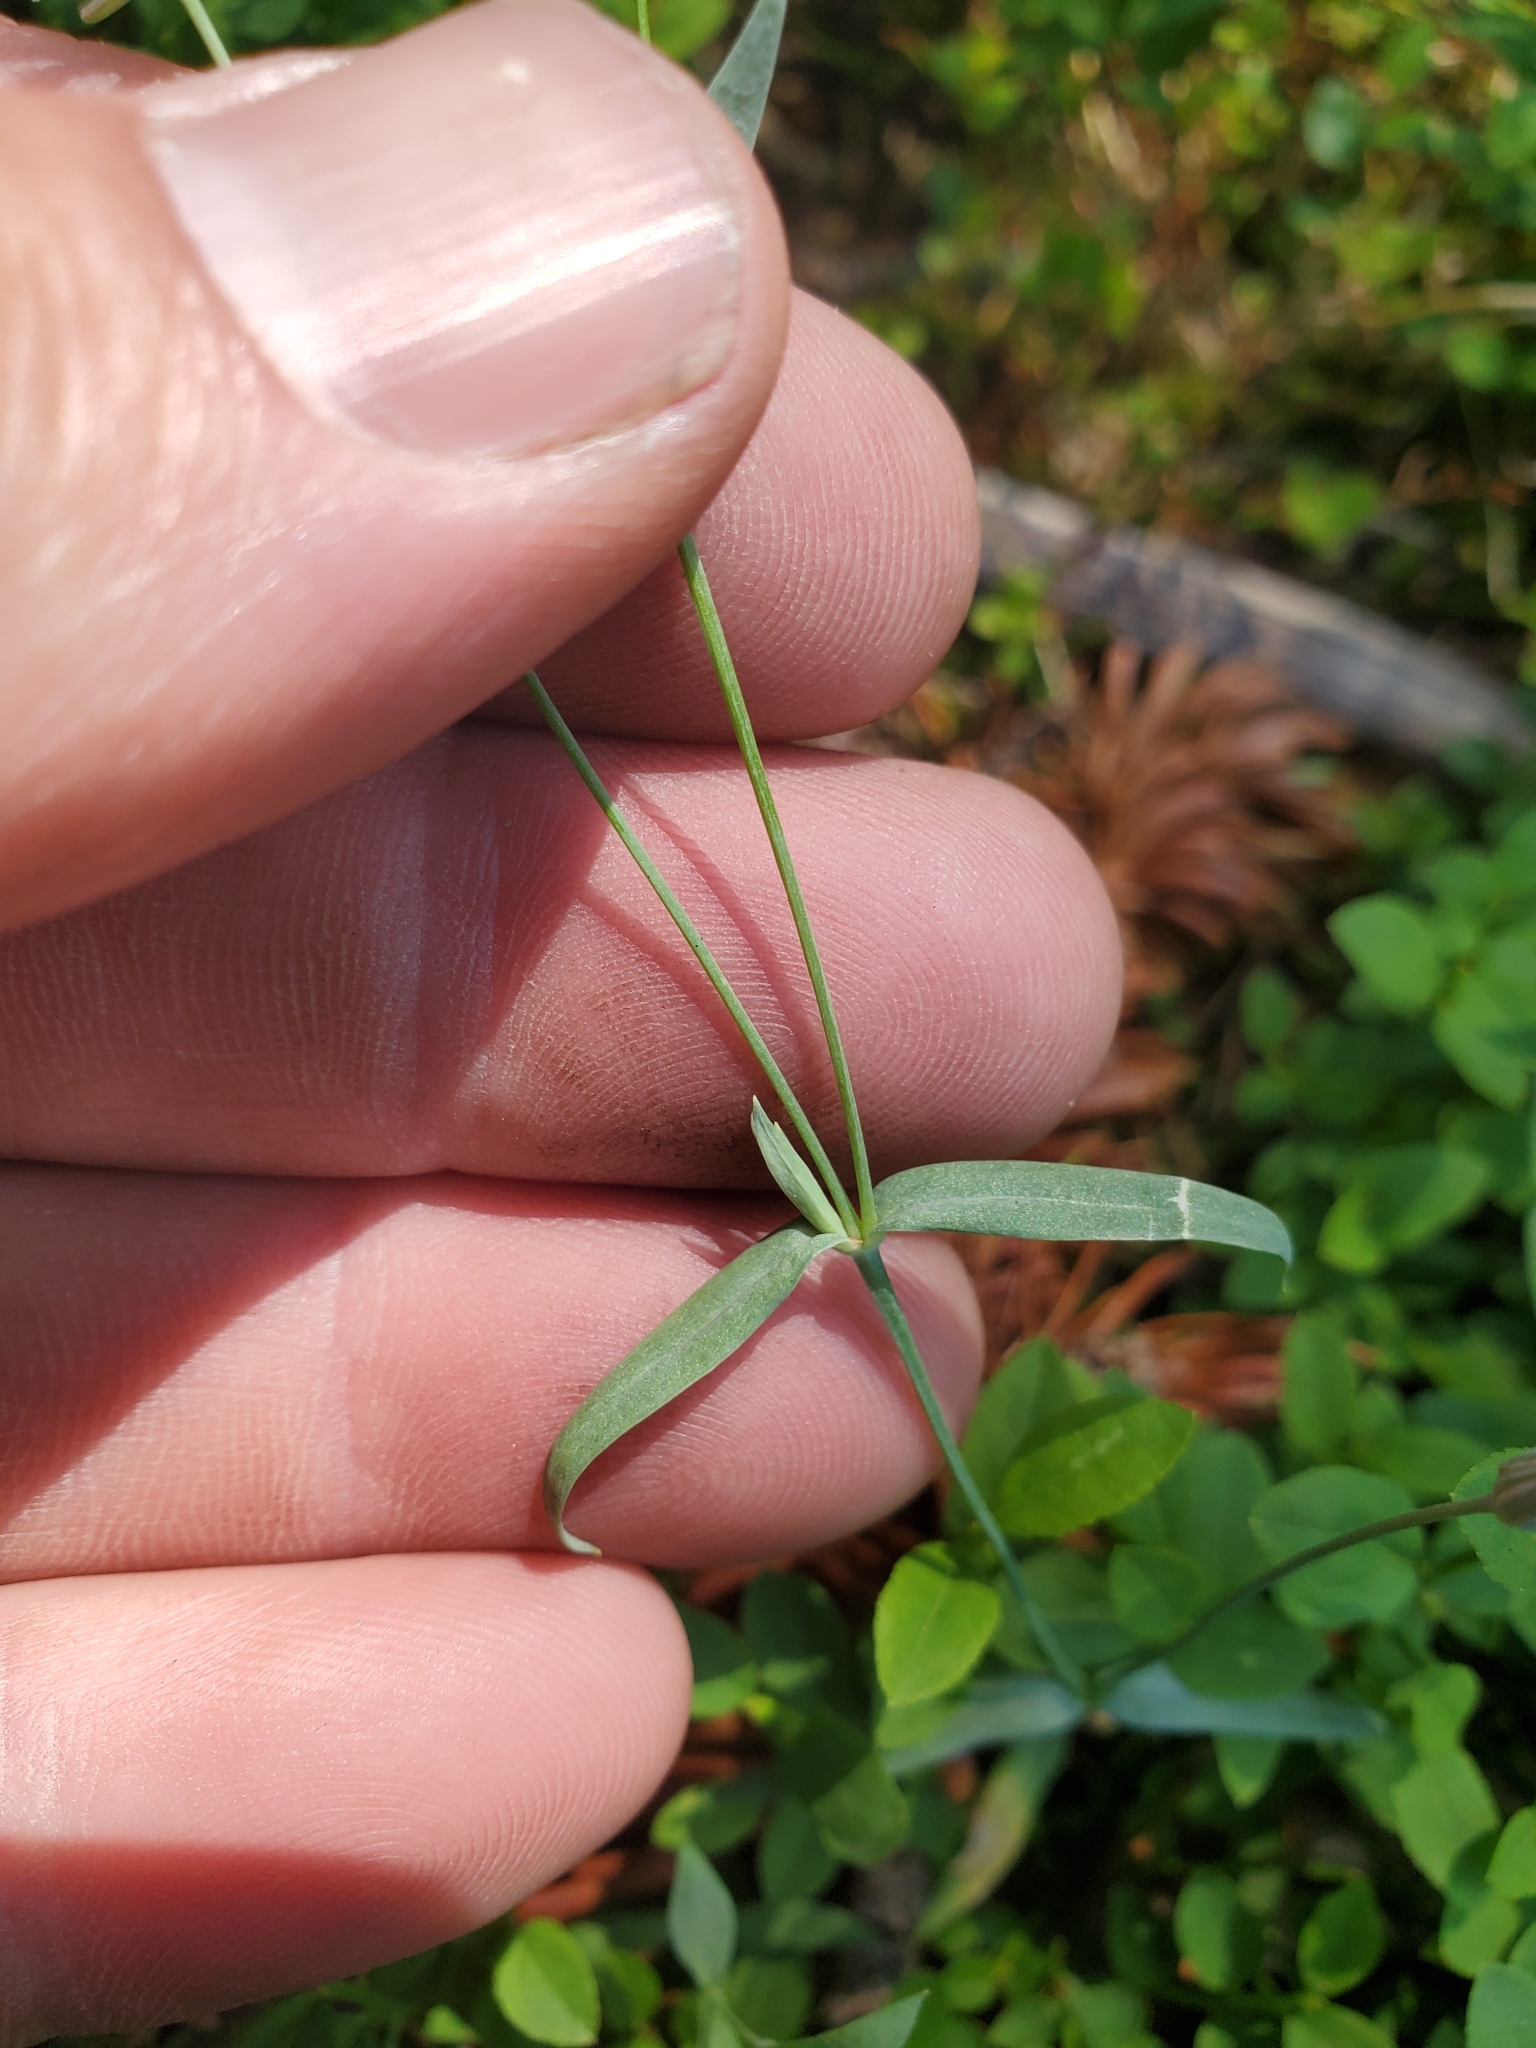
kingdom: Plantae
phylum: Tracheophyta
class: Magnoliopsida
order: Caryophyllales
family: Caryophyllaceae
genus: Stellaria
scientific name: Stellaria longipes
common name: Goldie's starwort
